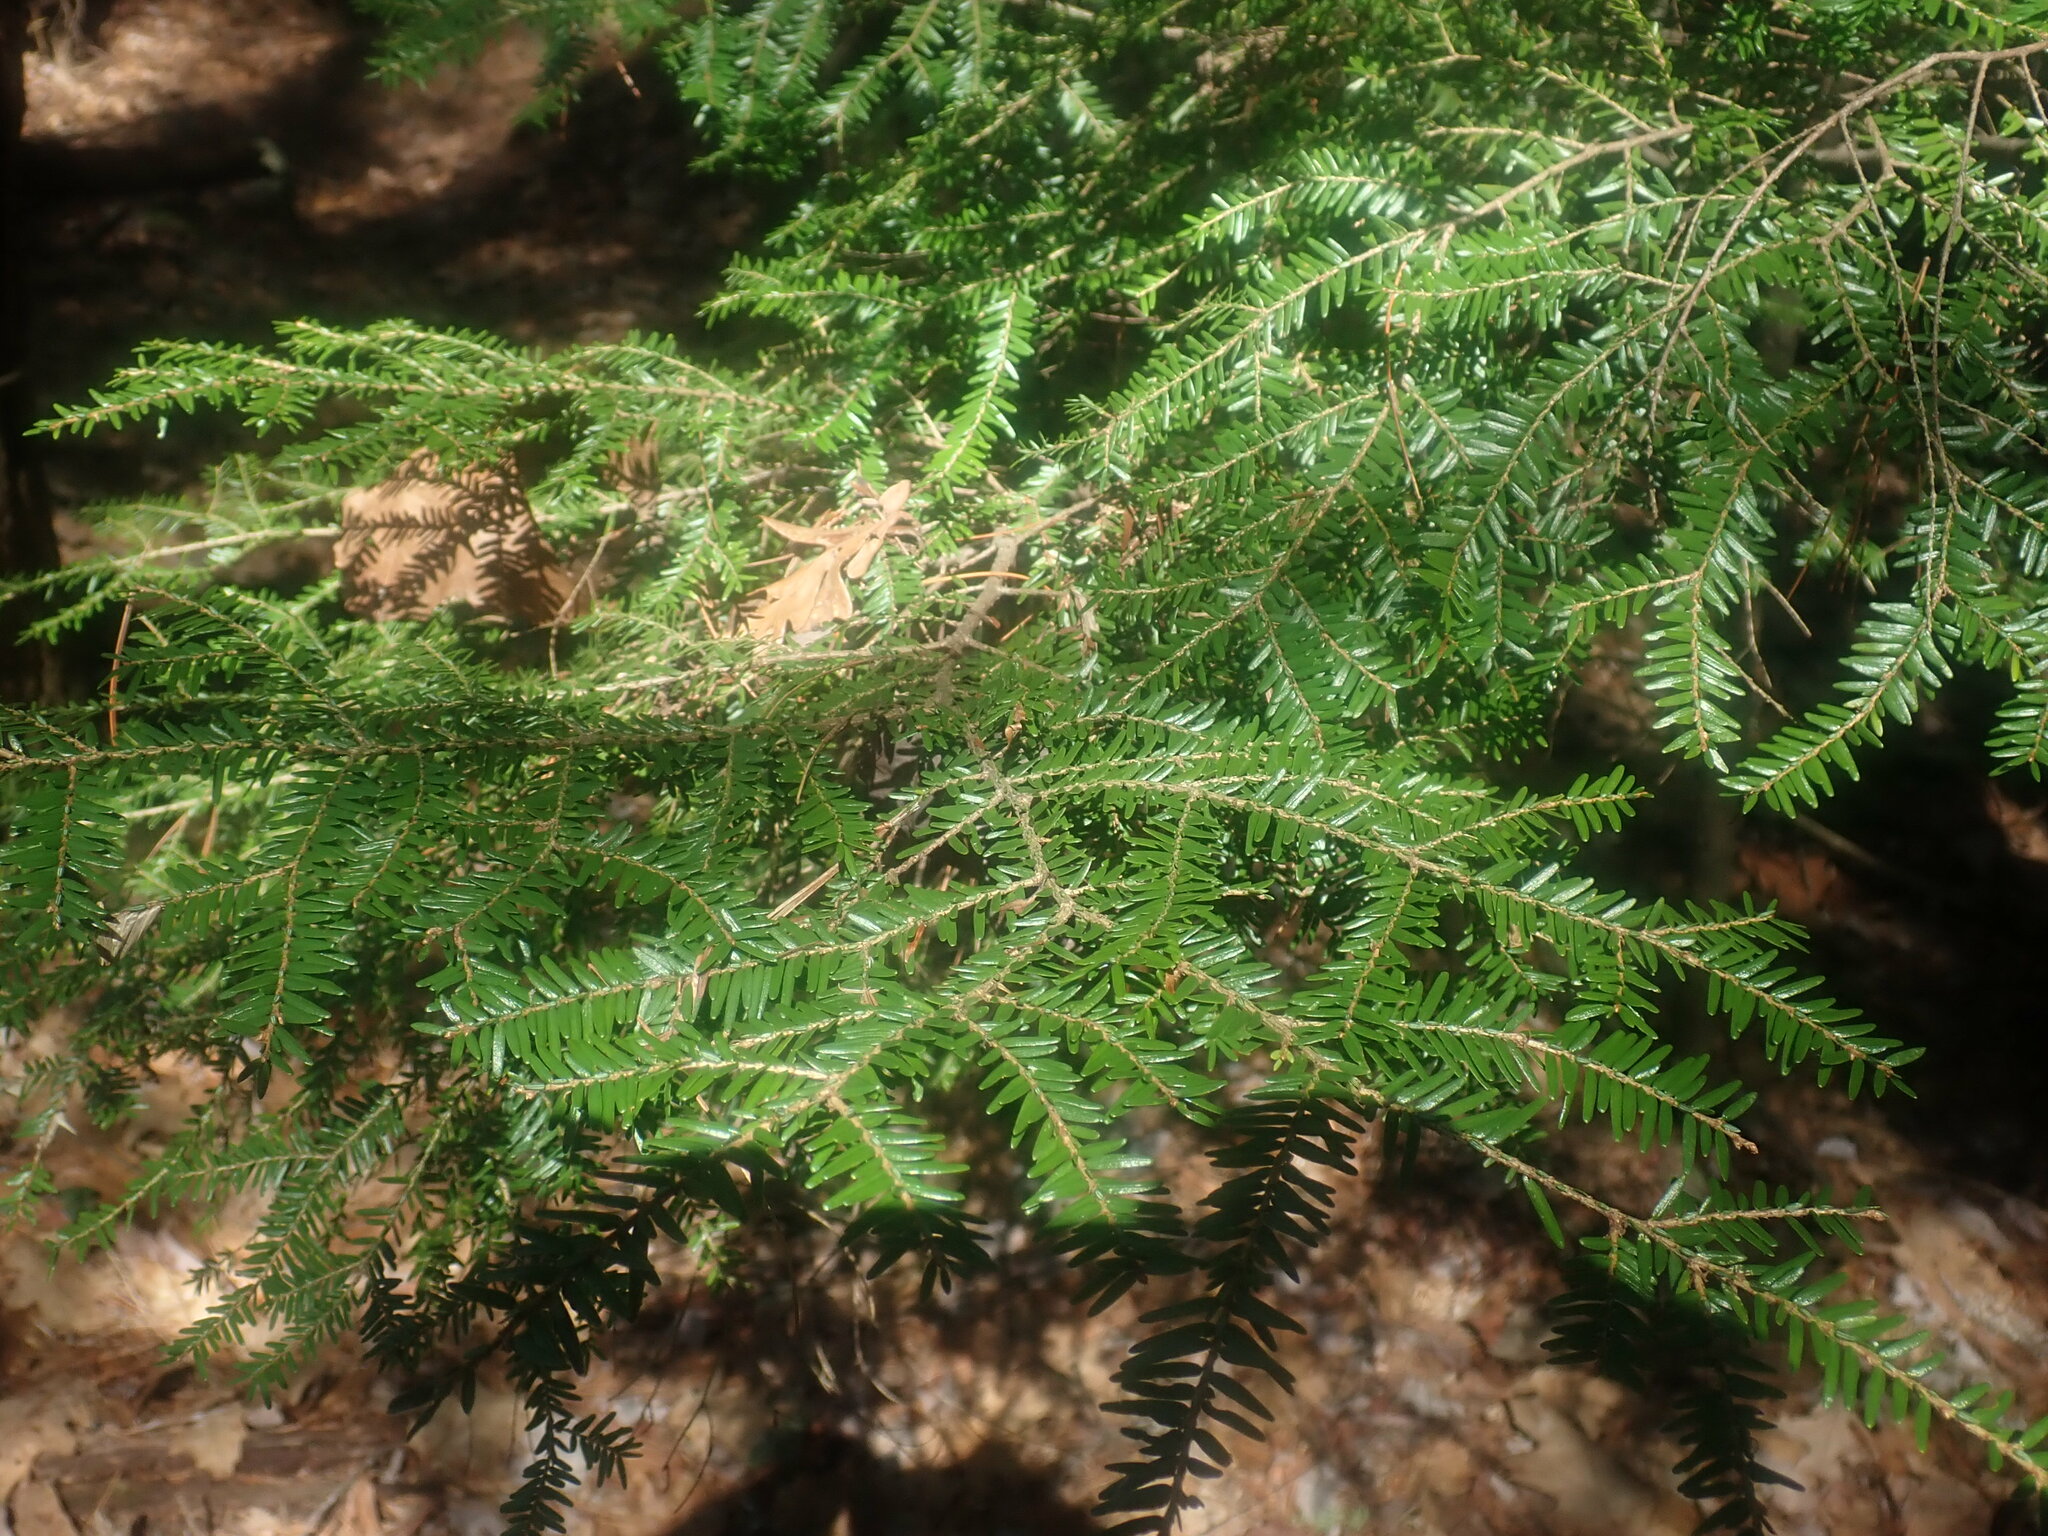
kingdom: Plantae
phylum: Tracheophyta
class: Pinopsida
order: Pinales
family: Pinaceae
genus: Tsuga
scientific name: Tsuga canadensis
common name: Eastern hemlock
